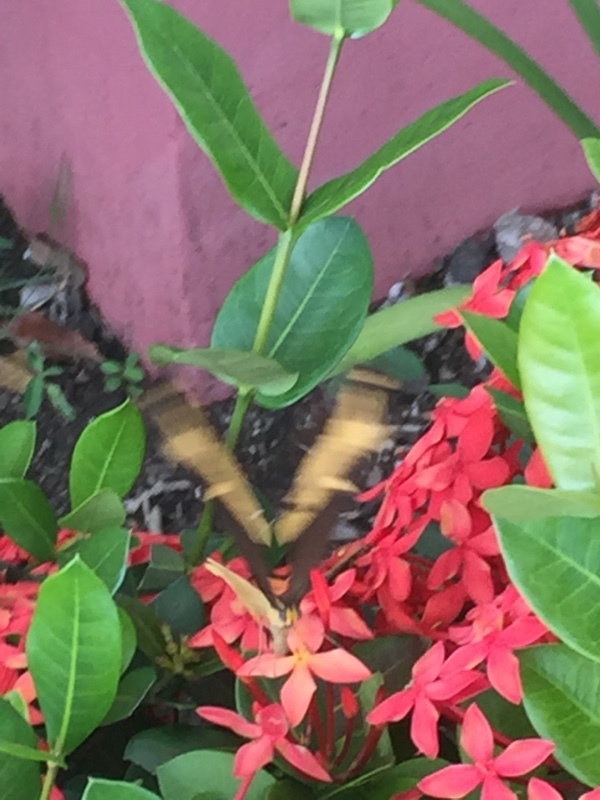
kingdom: Animalia
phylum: Arthropoda
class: Insecta
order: Lepidoptera
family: Papilionidae
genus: Papilio
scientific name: Papilio andraemon
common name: Bahaman swallowtail
